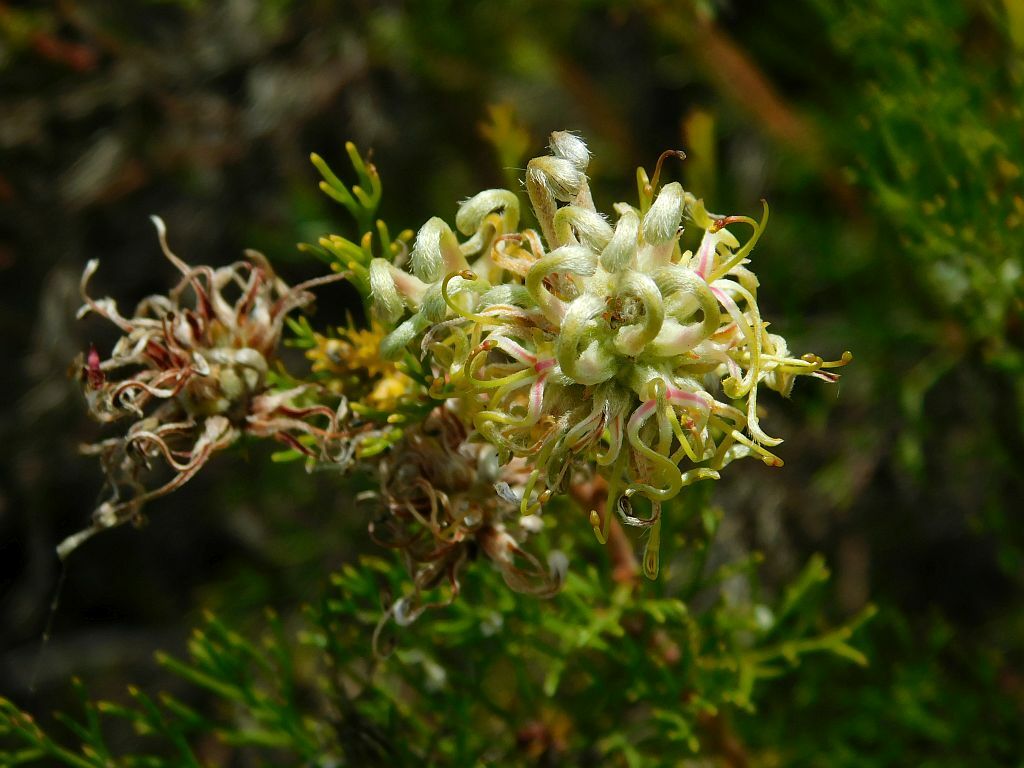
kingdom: Plantae
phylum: Tracheophyta
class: Magnoliopsida
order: Proteales
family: Proteaceae
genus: Serruria
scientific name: Serruria
